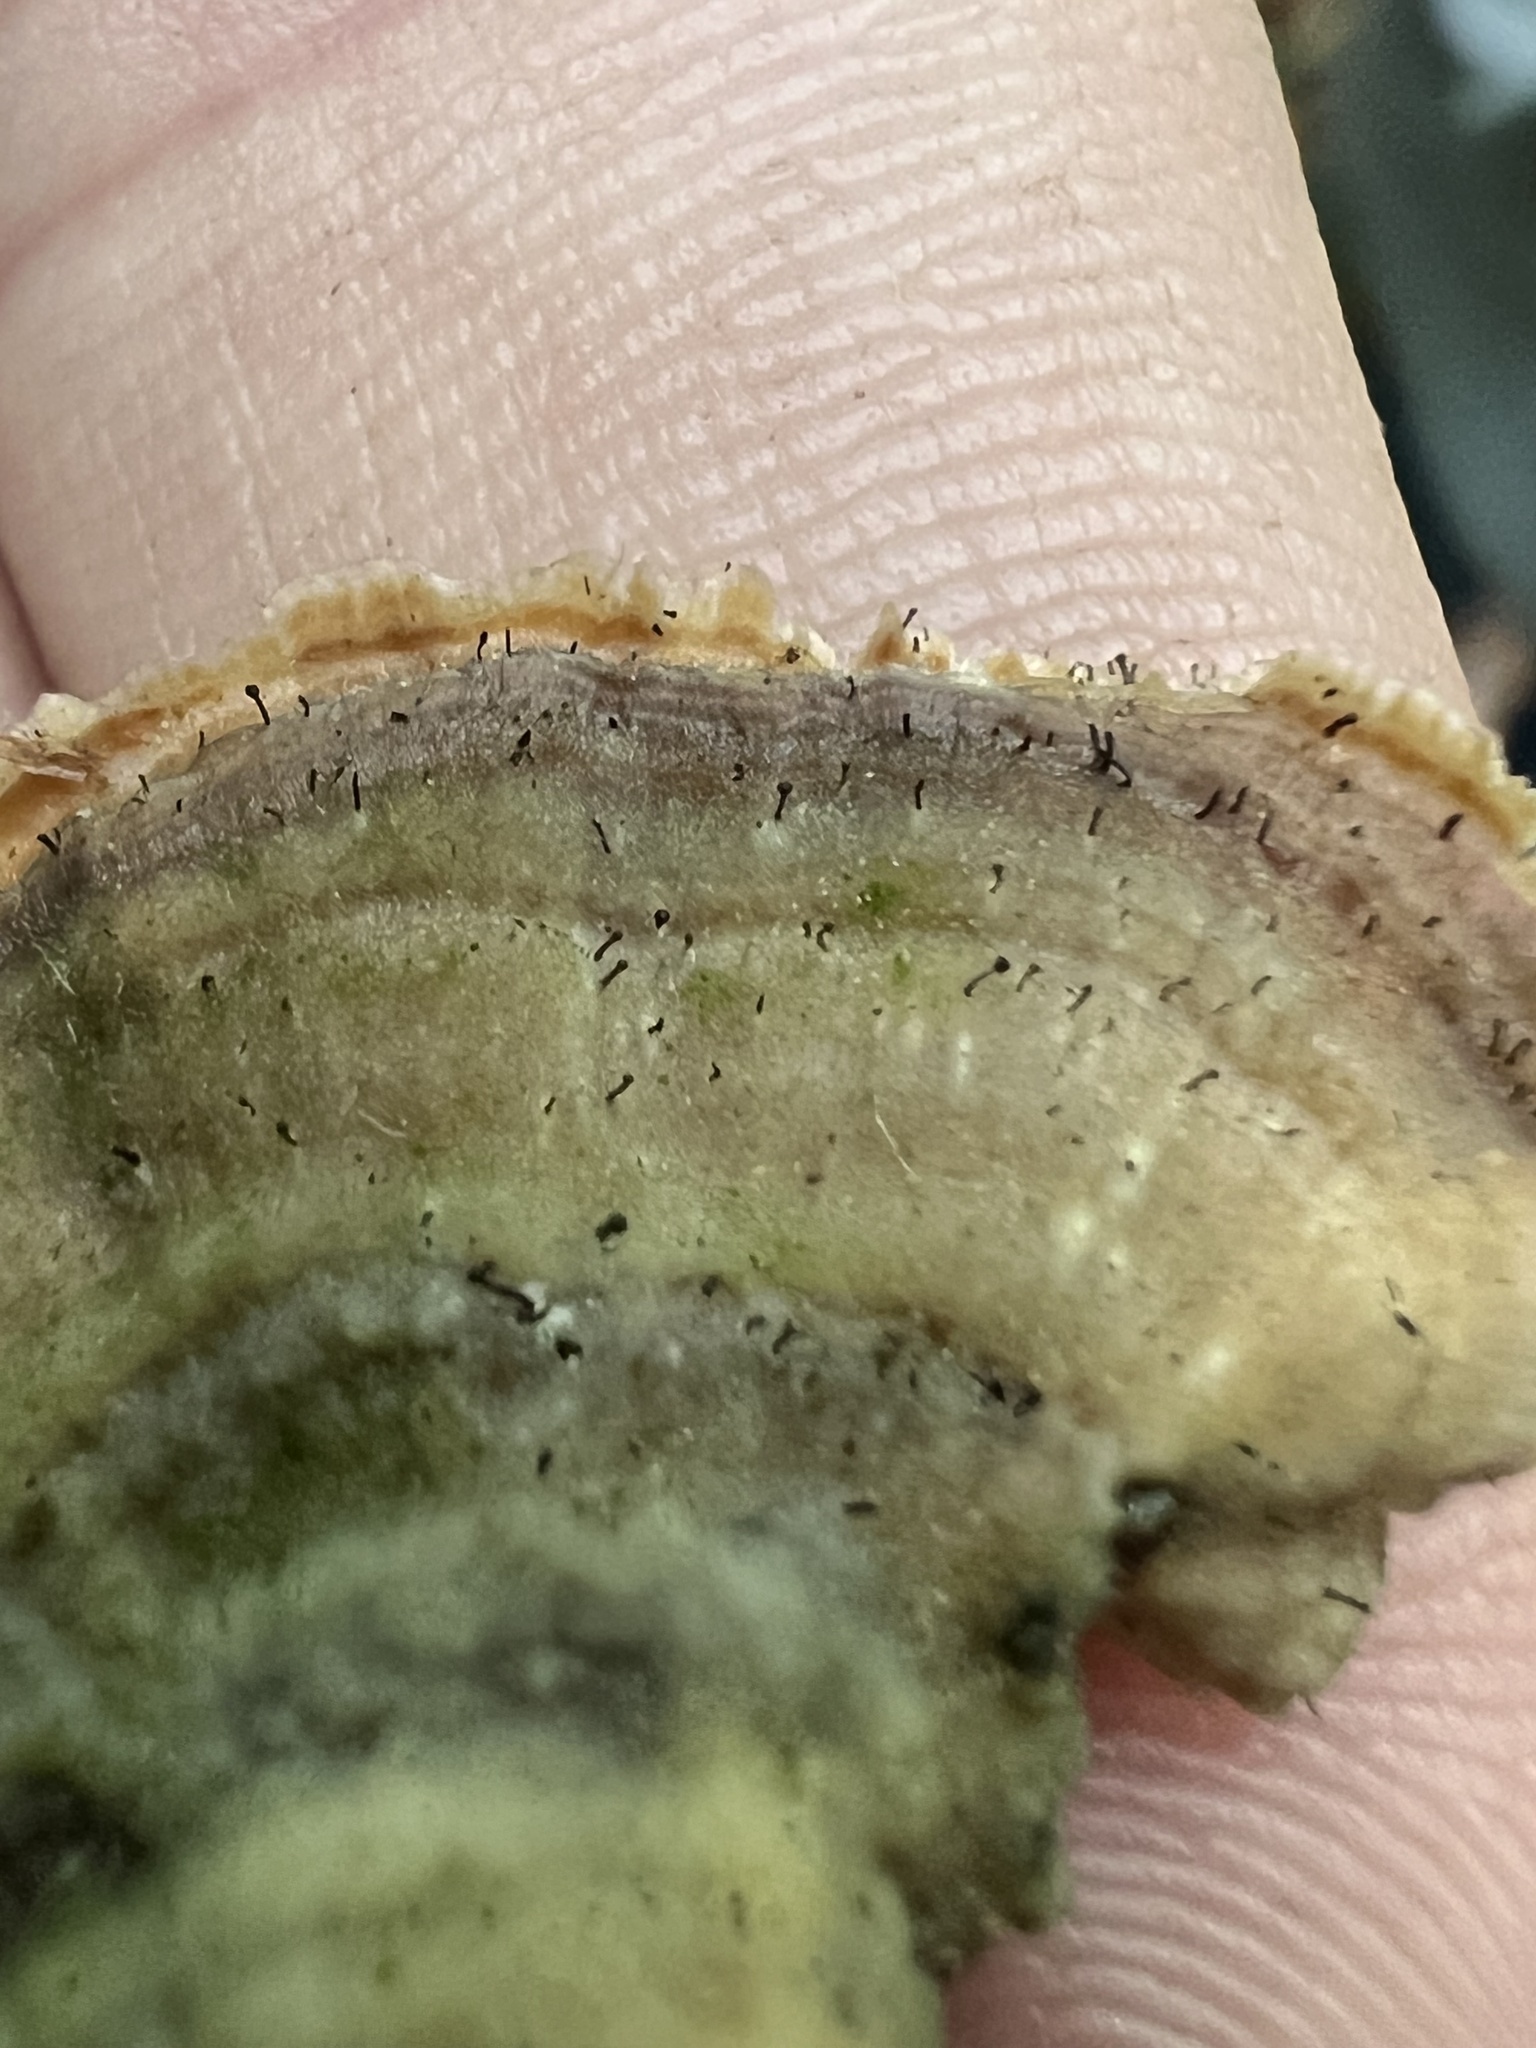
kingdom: Fungi
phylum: Ascomycota
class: Eurotiomycetes
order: Mycocaliciales
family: Mycocaliciaceae
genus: Phaeocalicium
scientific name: Phaeocalicium polyporaeum
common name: Fairy pins
